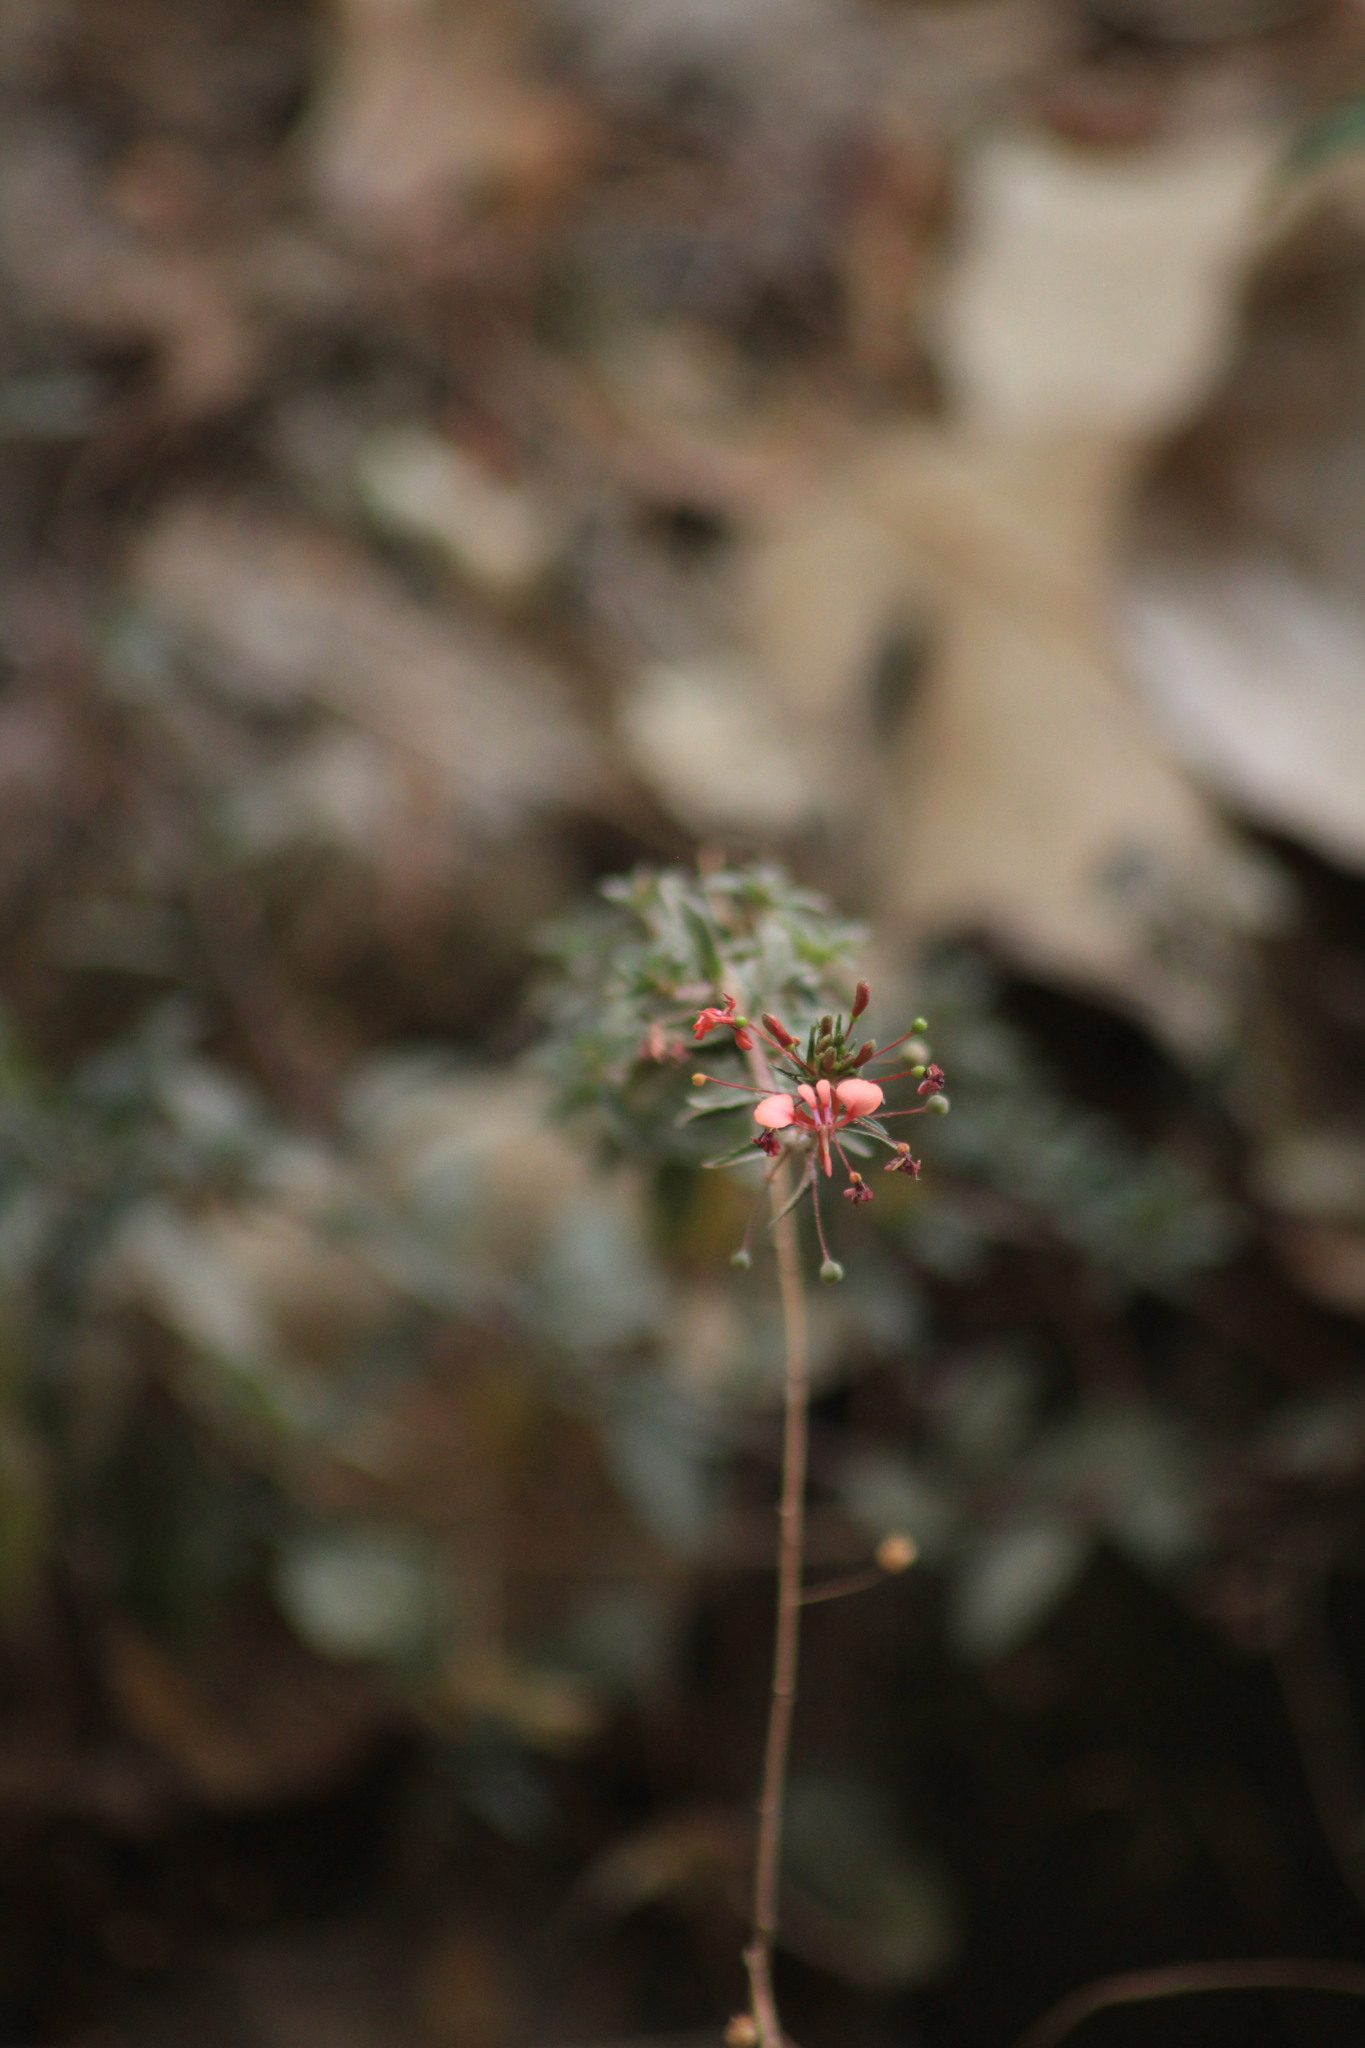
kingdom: Plantae
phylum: Tracheophyta
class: Magnoliopsida
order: Myrtales
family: Onagraceae
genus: Lopezia
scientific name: Lopezia racemosa
